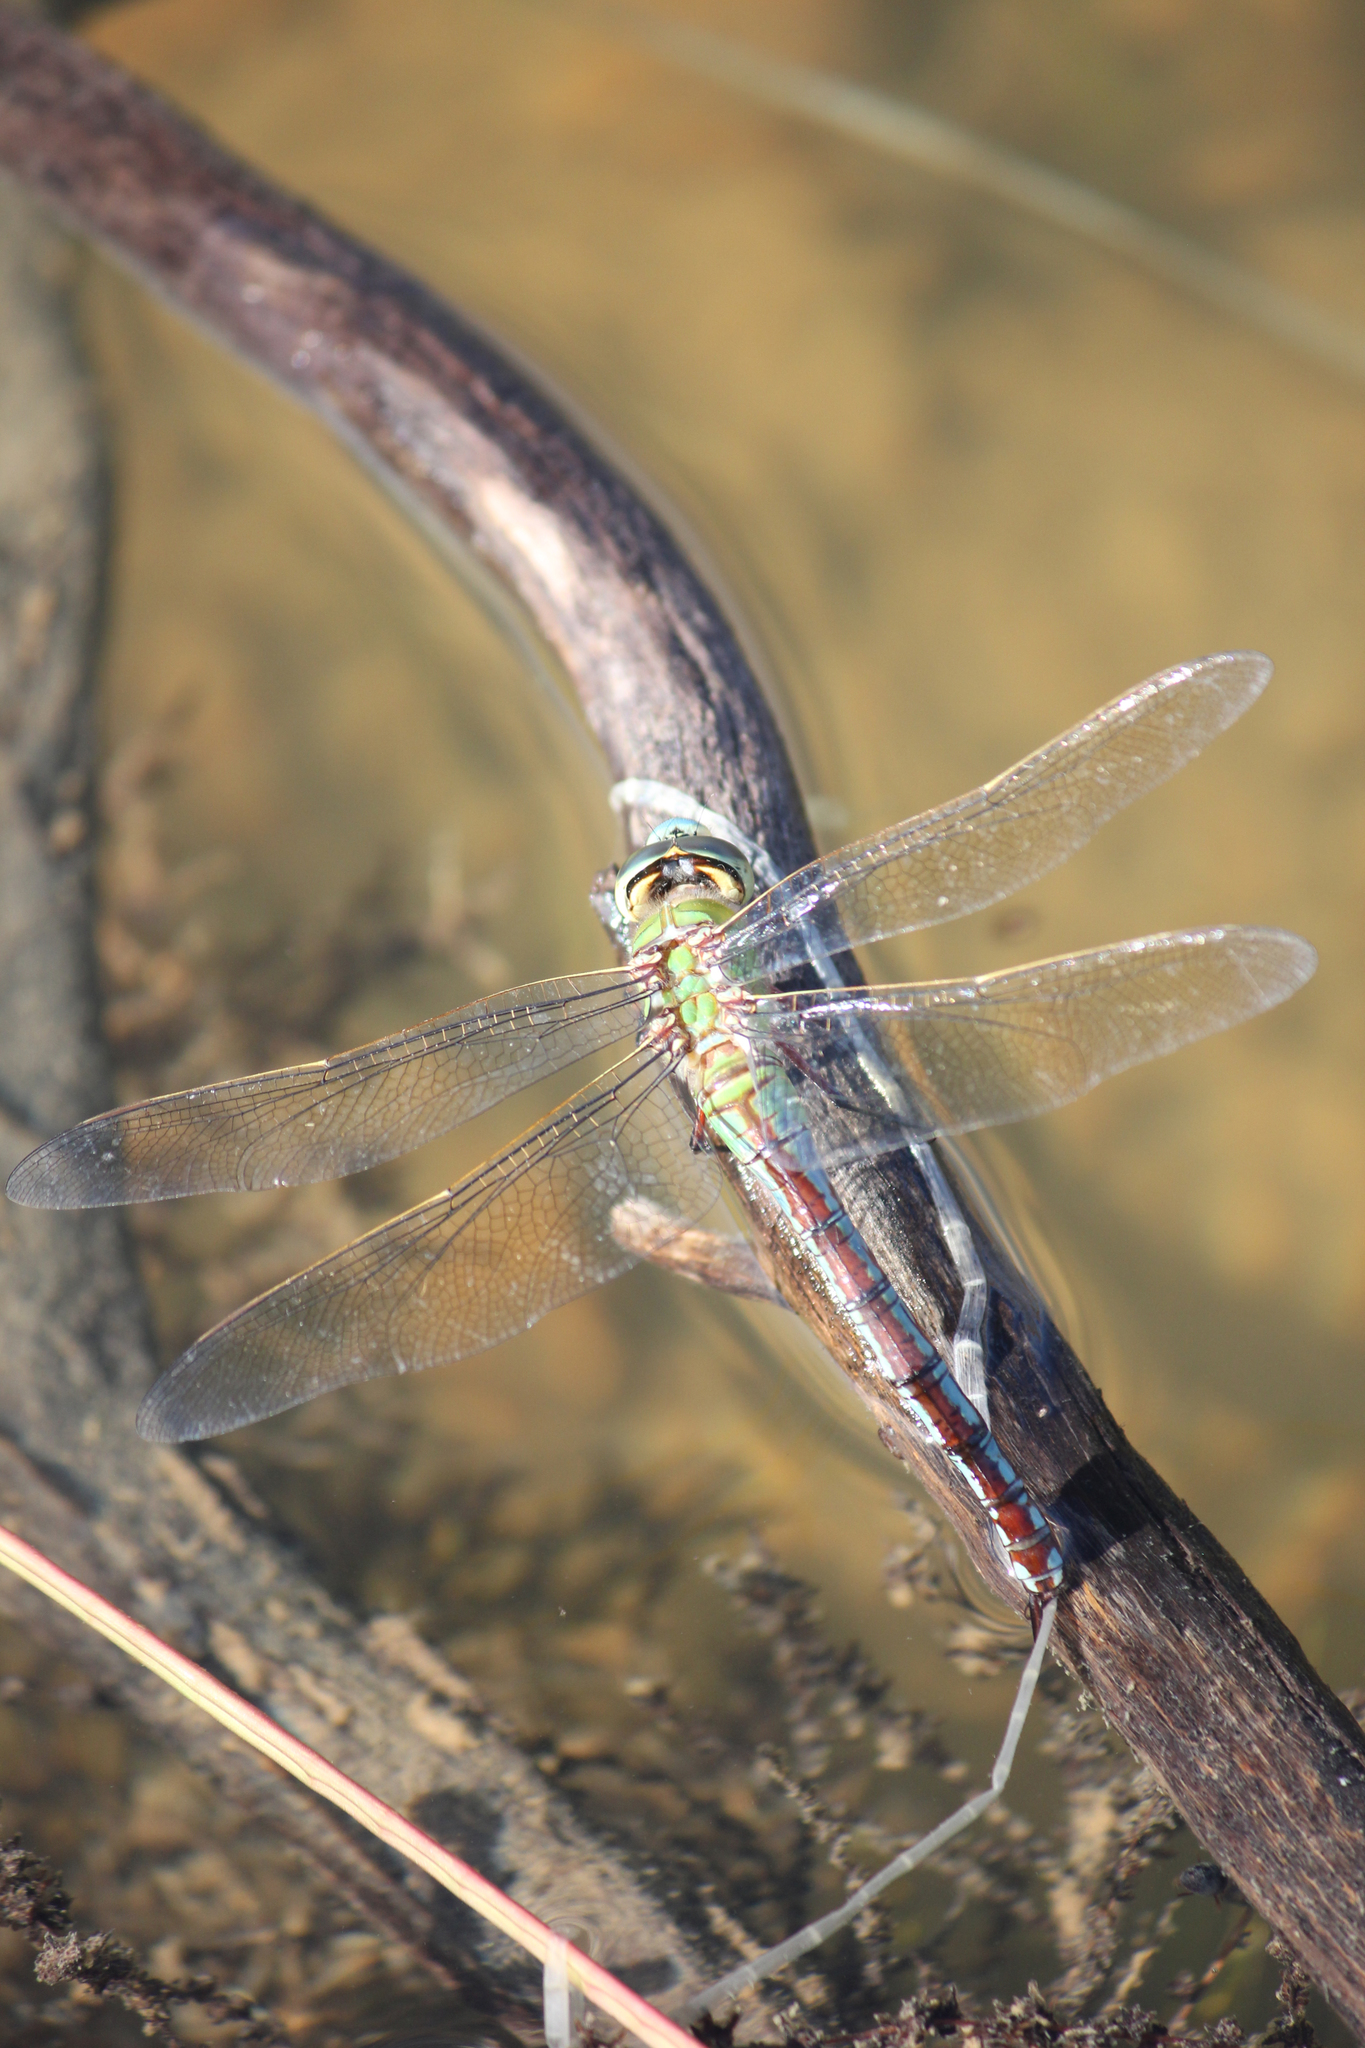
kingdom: Animalia
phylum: Arthropoda
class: Insecta
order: Odonata
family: Aeshnidae
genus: Anax
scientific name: Anax imperator
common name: Emperor dragonfly
